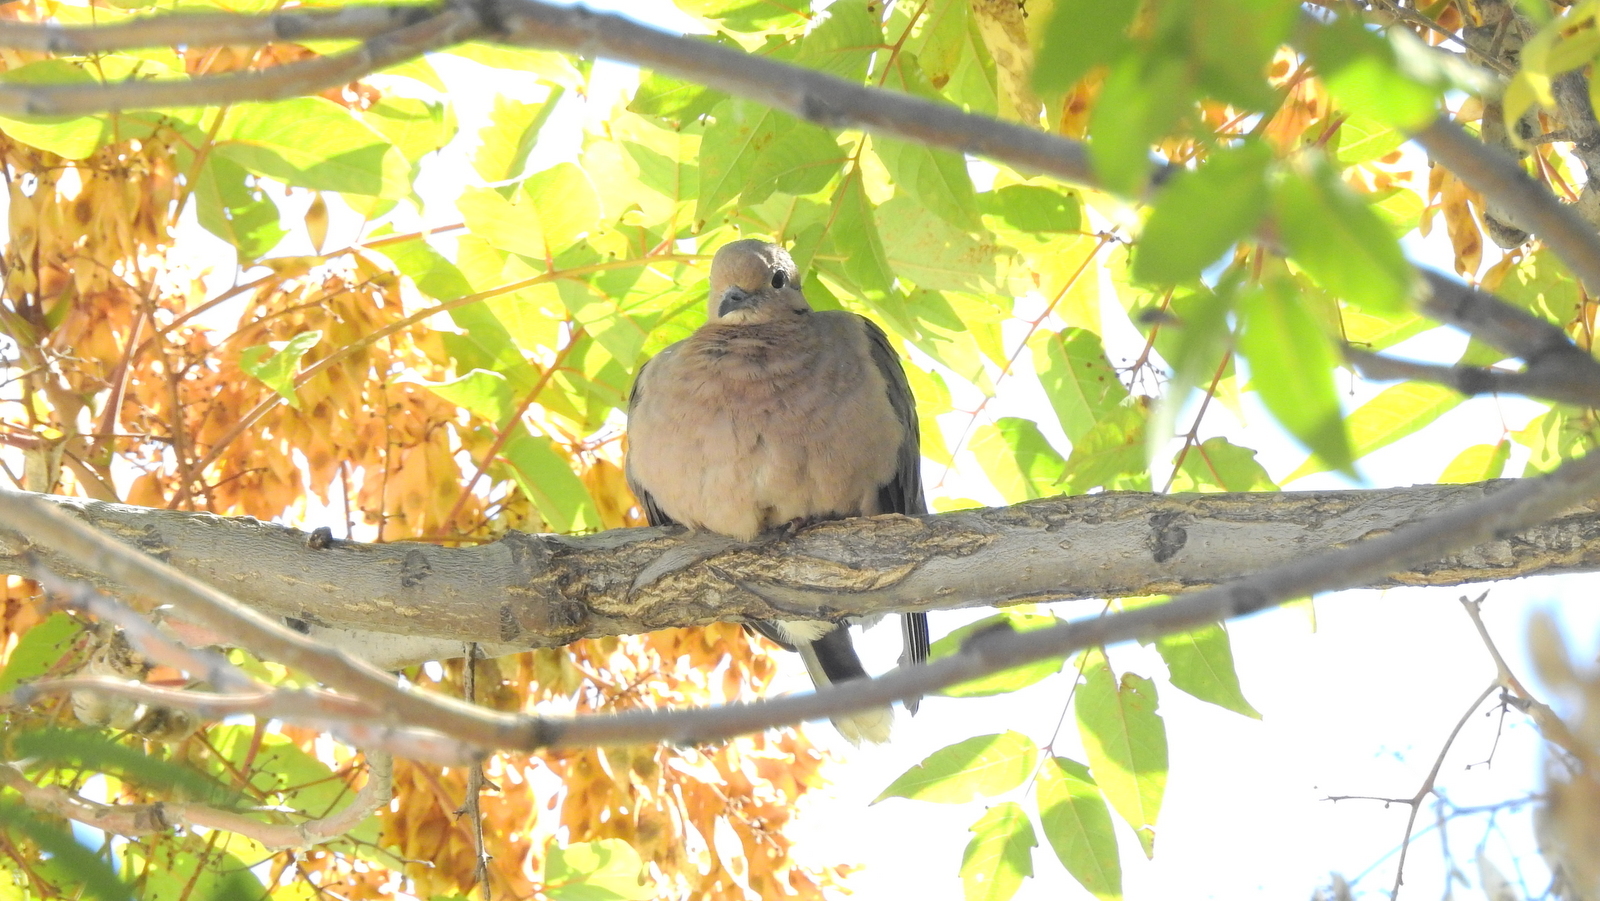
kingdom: Animalia
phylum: Chordata
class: Aves
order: Columbiformes
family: Columbidae
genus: Zenaida
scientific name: Zenaida auriculata
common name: Eared dove
